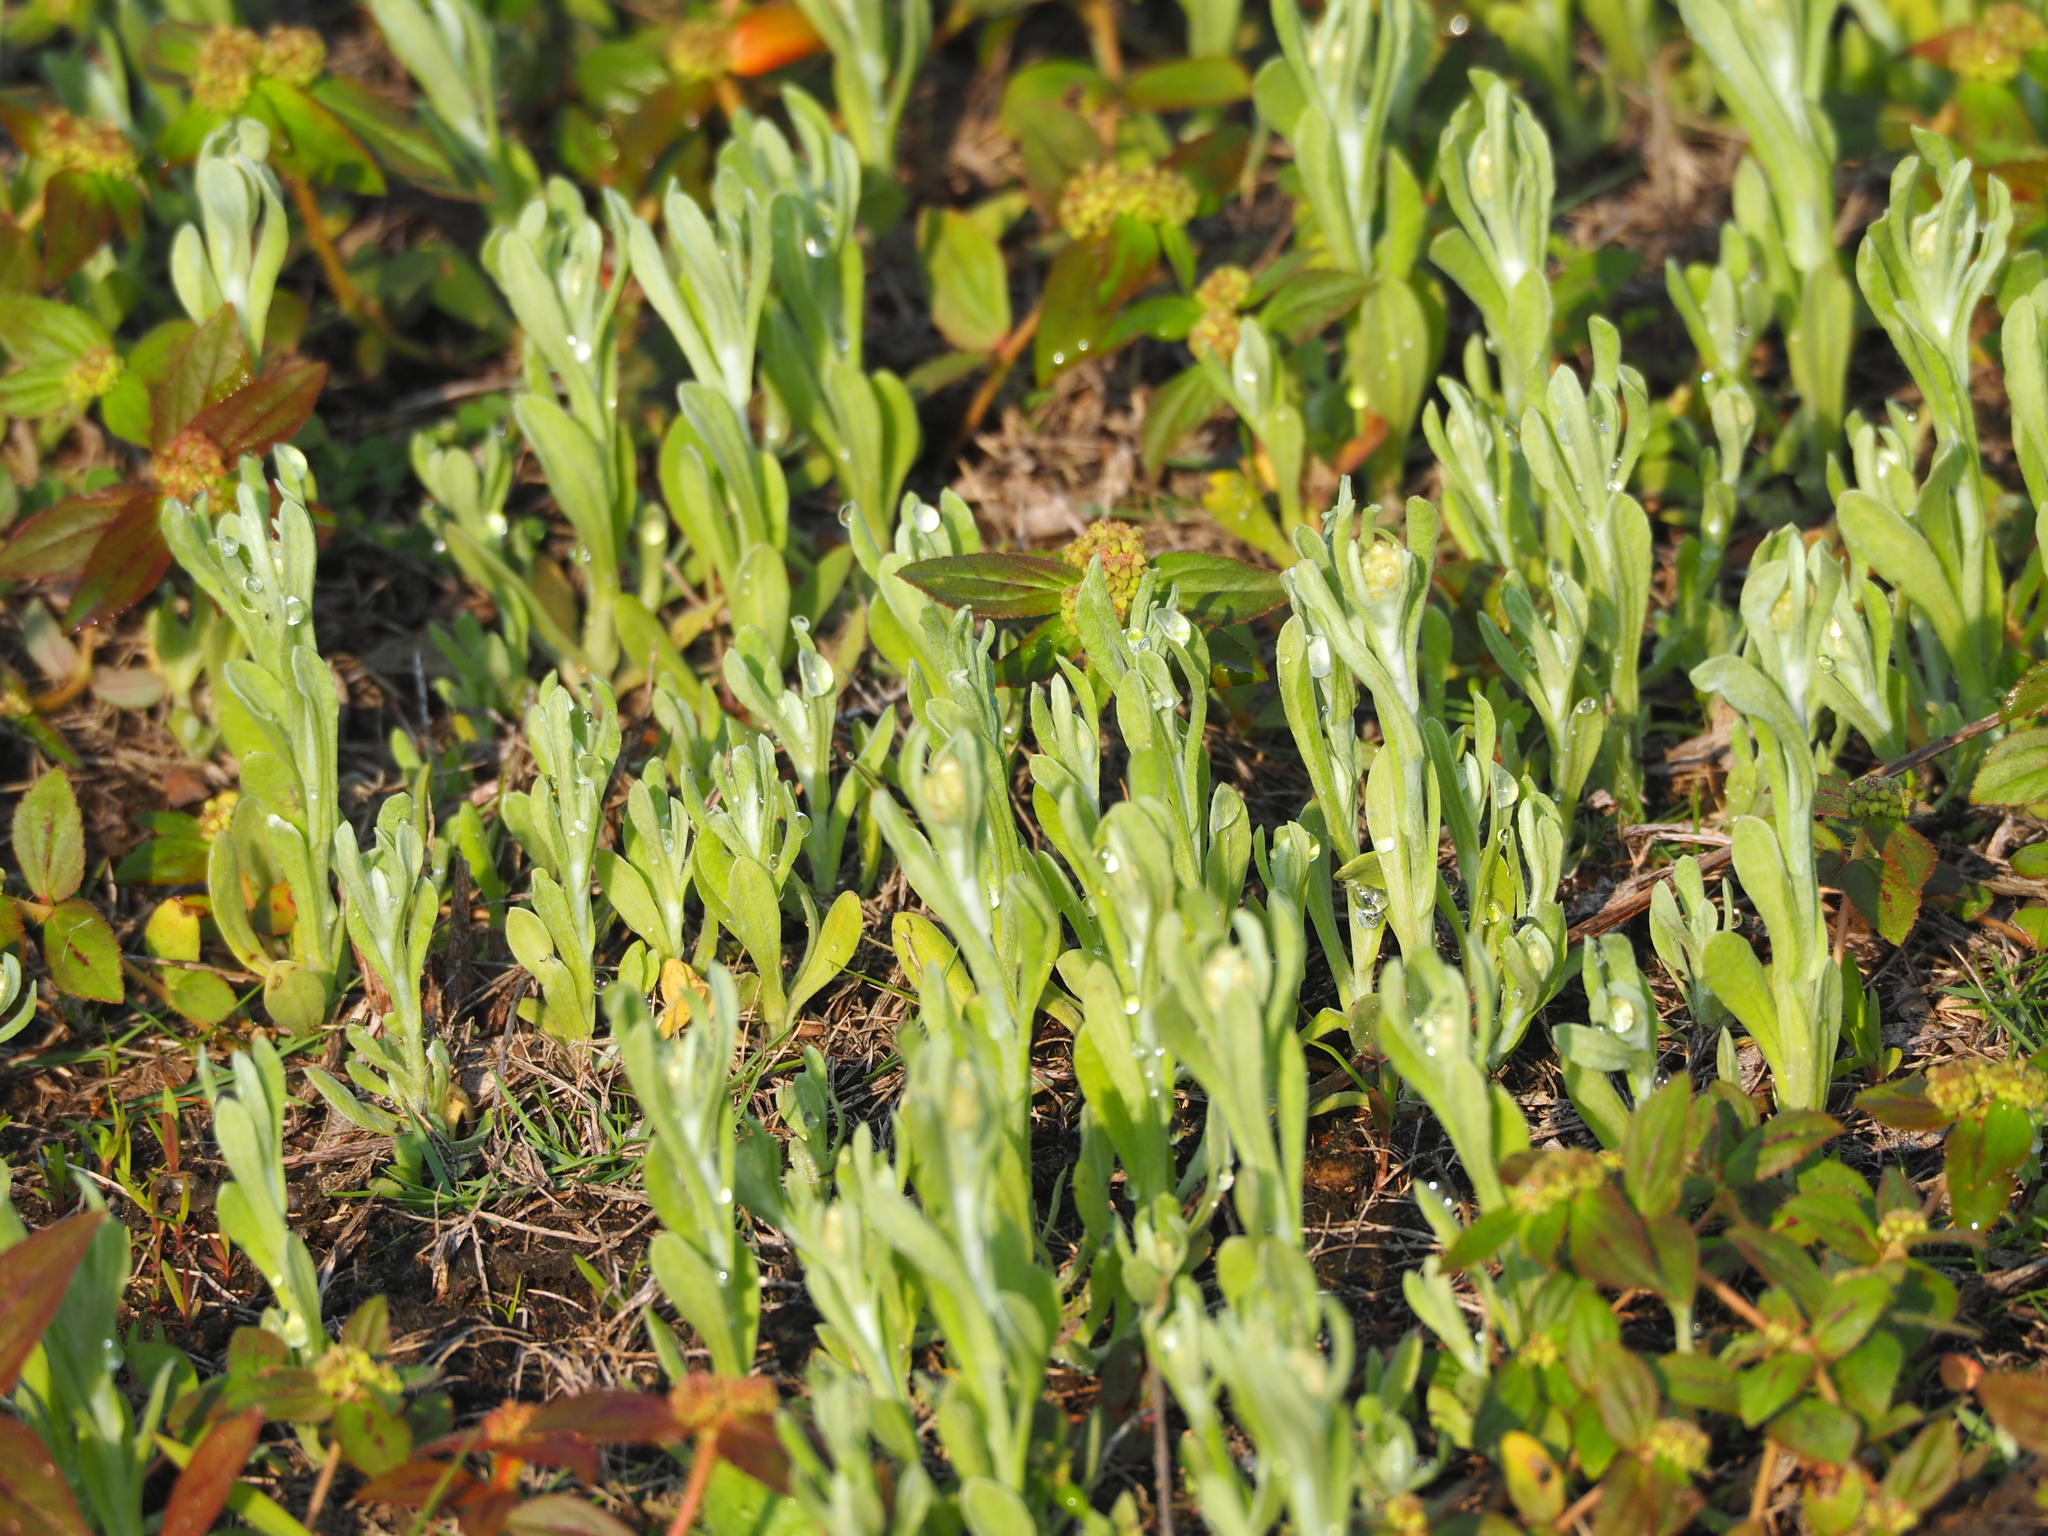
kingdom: Plantae
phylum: Tracheophyta
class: Magnoliopsida
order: Asterales
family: Asteraceae
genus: Pseudognaphalium
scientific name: Pseudognaphalium affine
